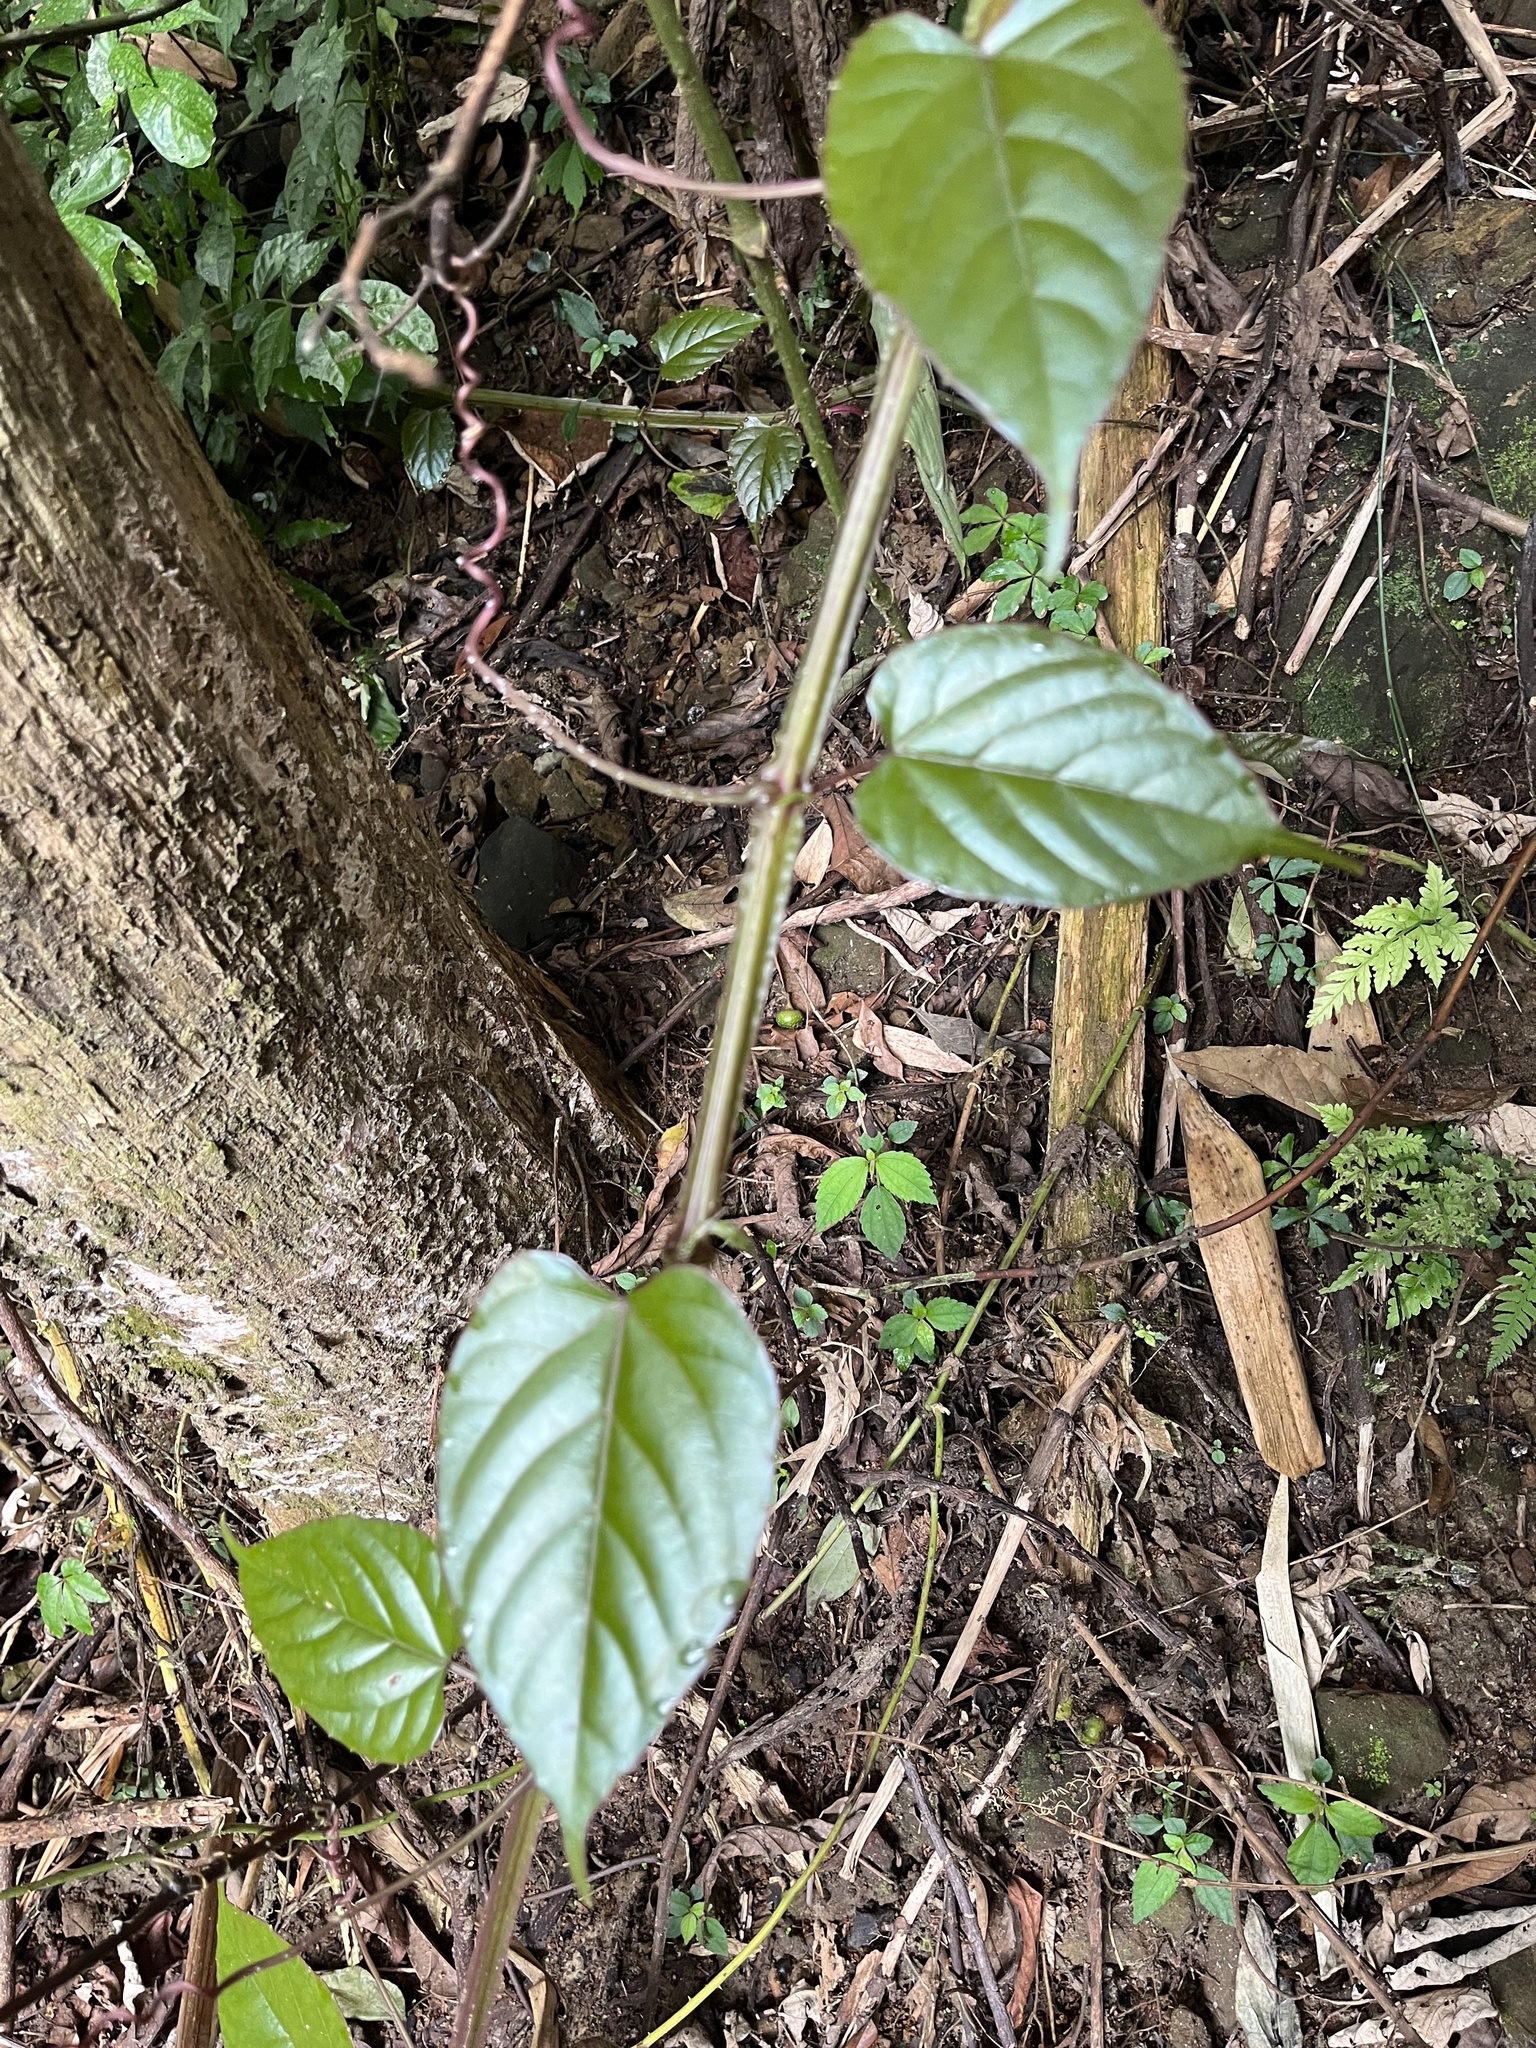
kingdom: Plantae
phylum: Tracheophyta
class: Magnoliopsida
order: Vitales
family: Vitaceae
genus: Cissus
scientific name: Cissus pteroclada
